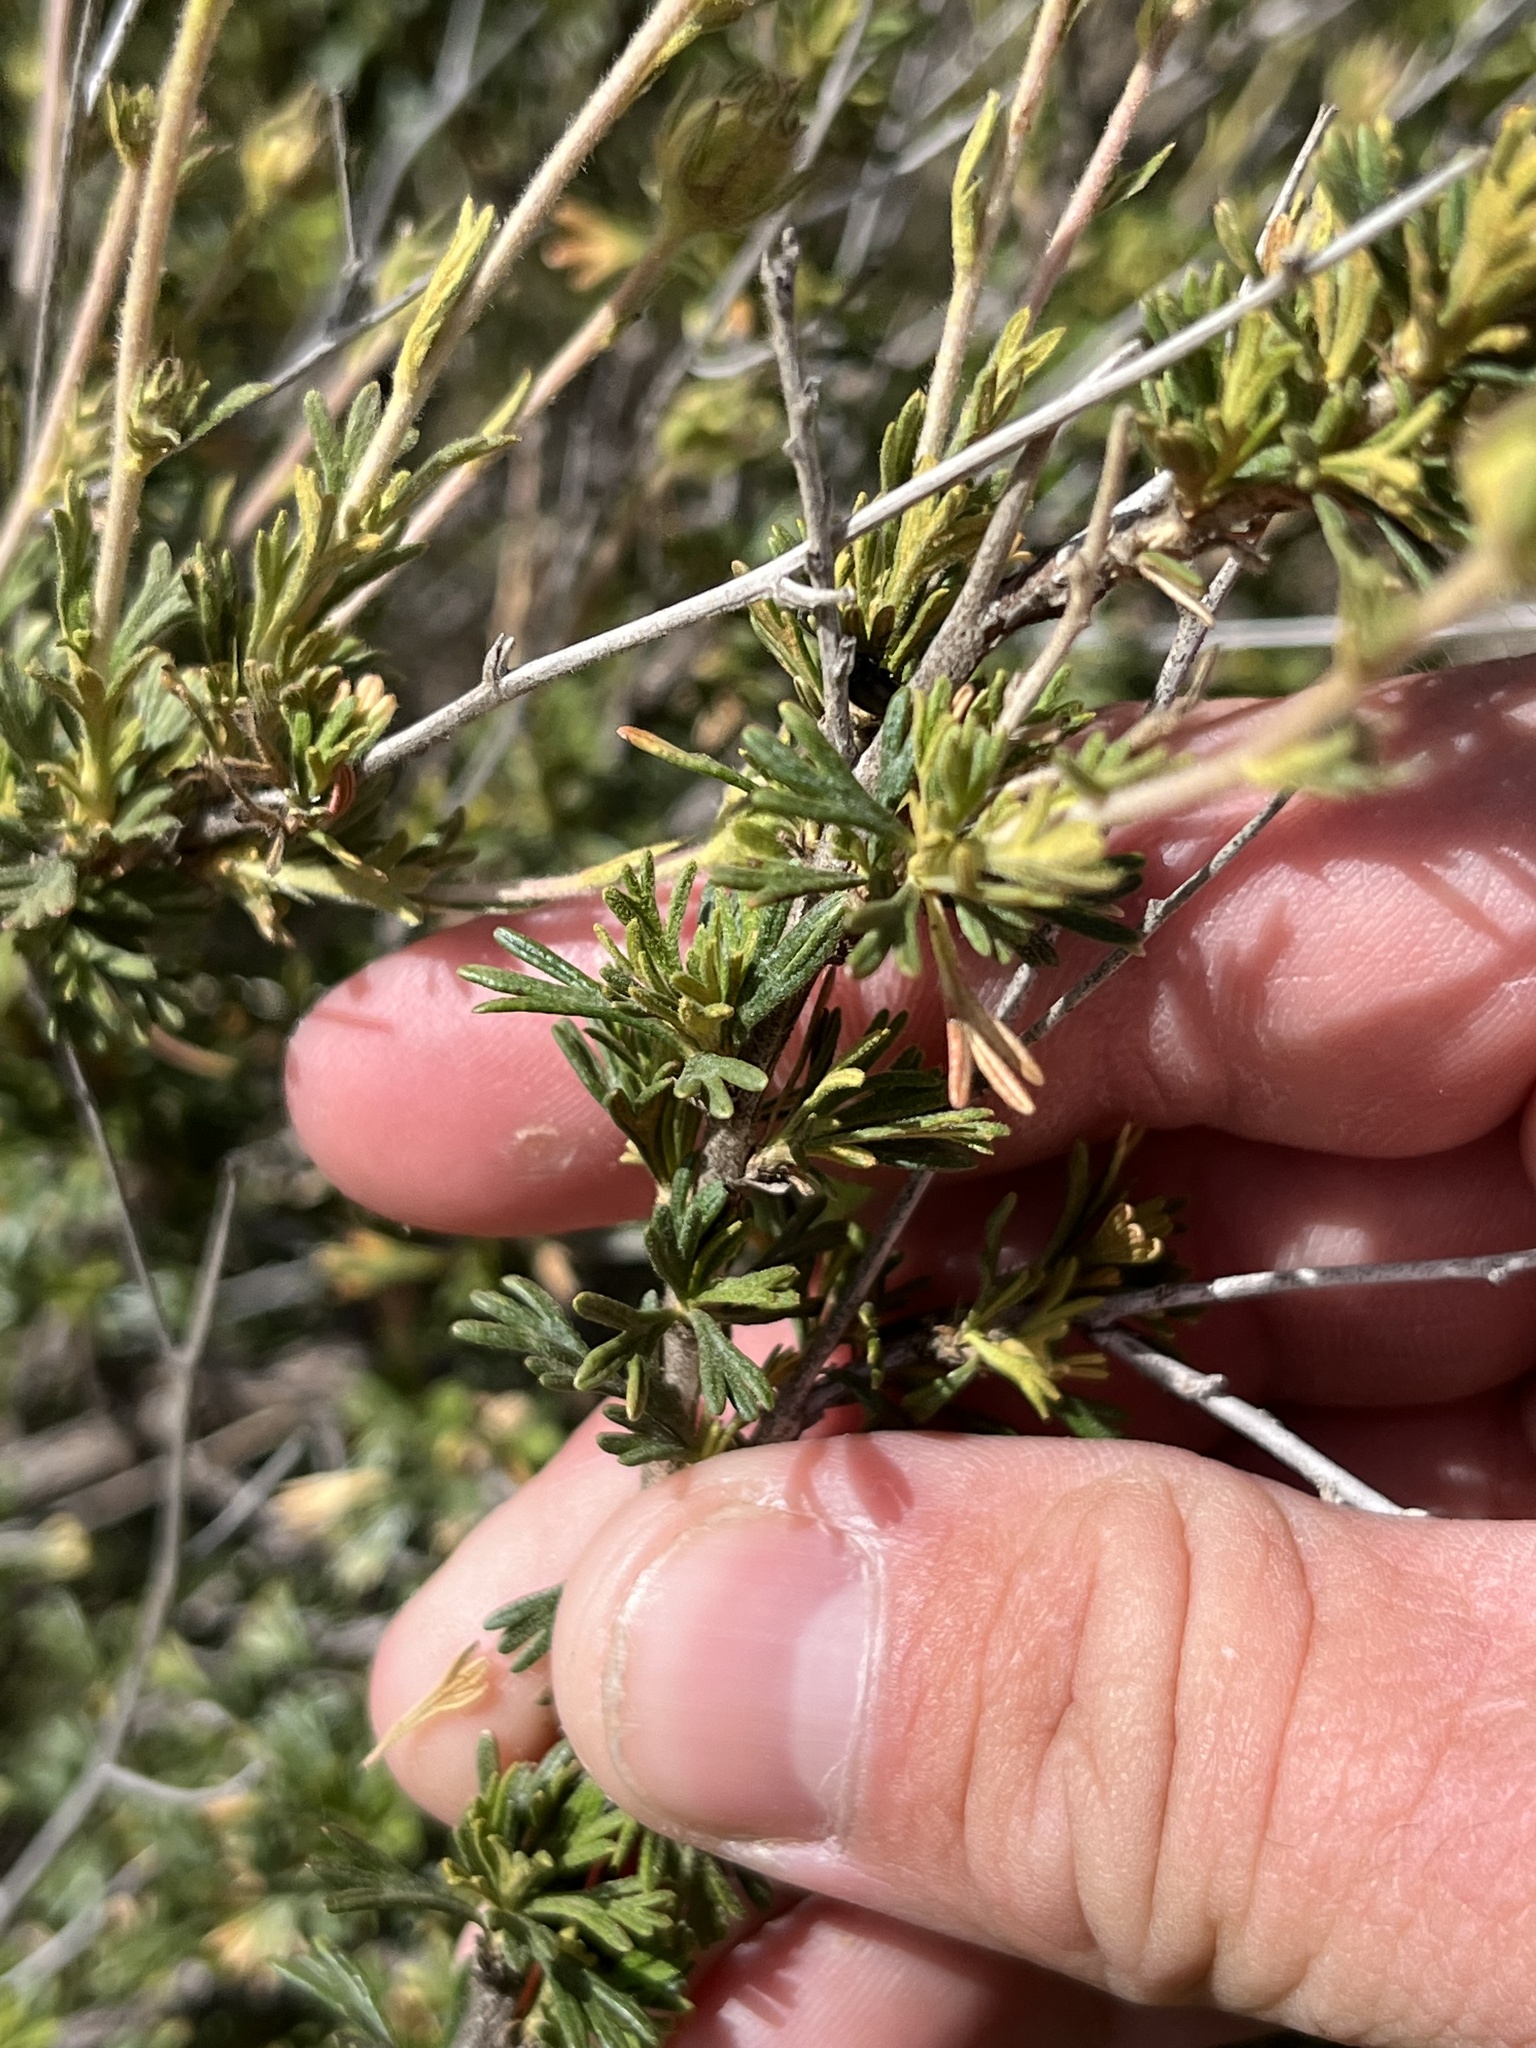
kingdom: Plantae
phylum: Tracheophyta
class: Magnoliopsida
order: Rosales
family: Rosaceae
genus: Fallugia
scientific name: Fallugia paradoxa
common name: Apache-plume
